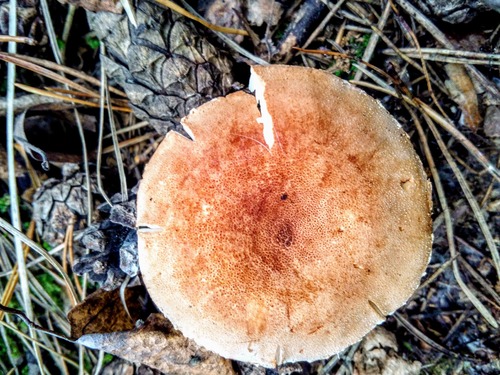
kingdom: Fungi
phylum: Basidiomycota
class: Agaricomycetes
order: Agaricales
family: Tricholomataceae
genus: Cystoderma
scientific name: Cystoderma
